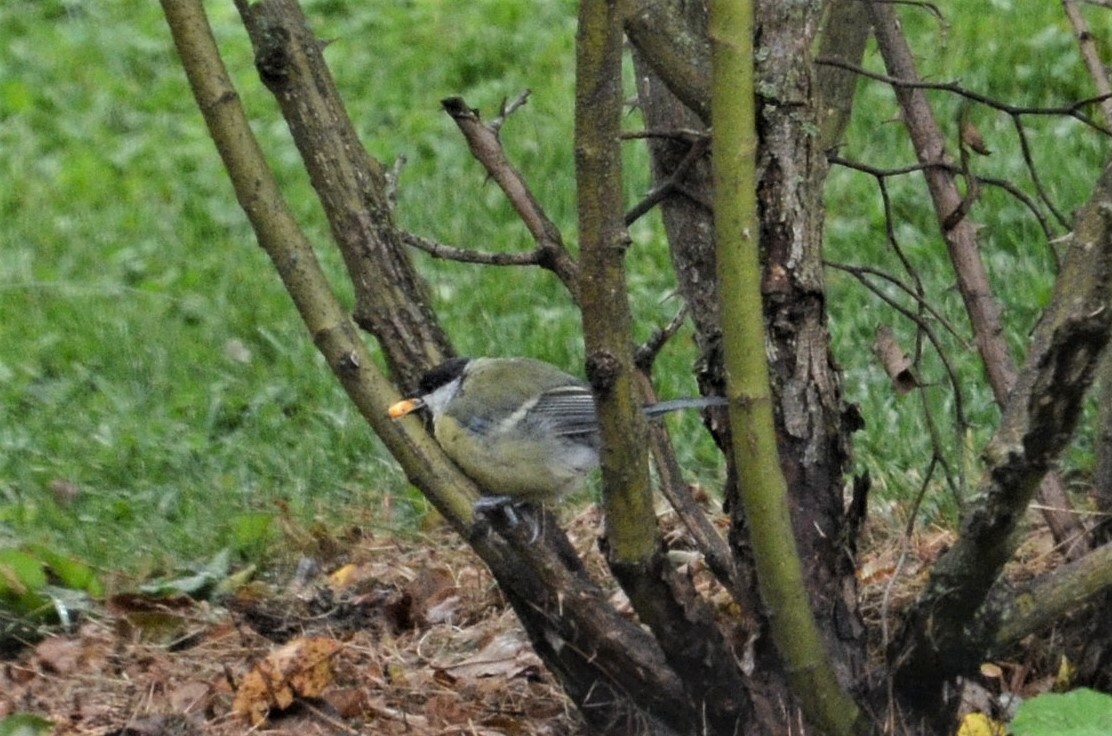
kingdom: Animalia
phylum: Chordata
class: Aves
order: Passeriformes
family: Paridae
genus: Parus
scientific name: Parus major
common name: Great tit
